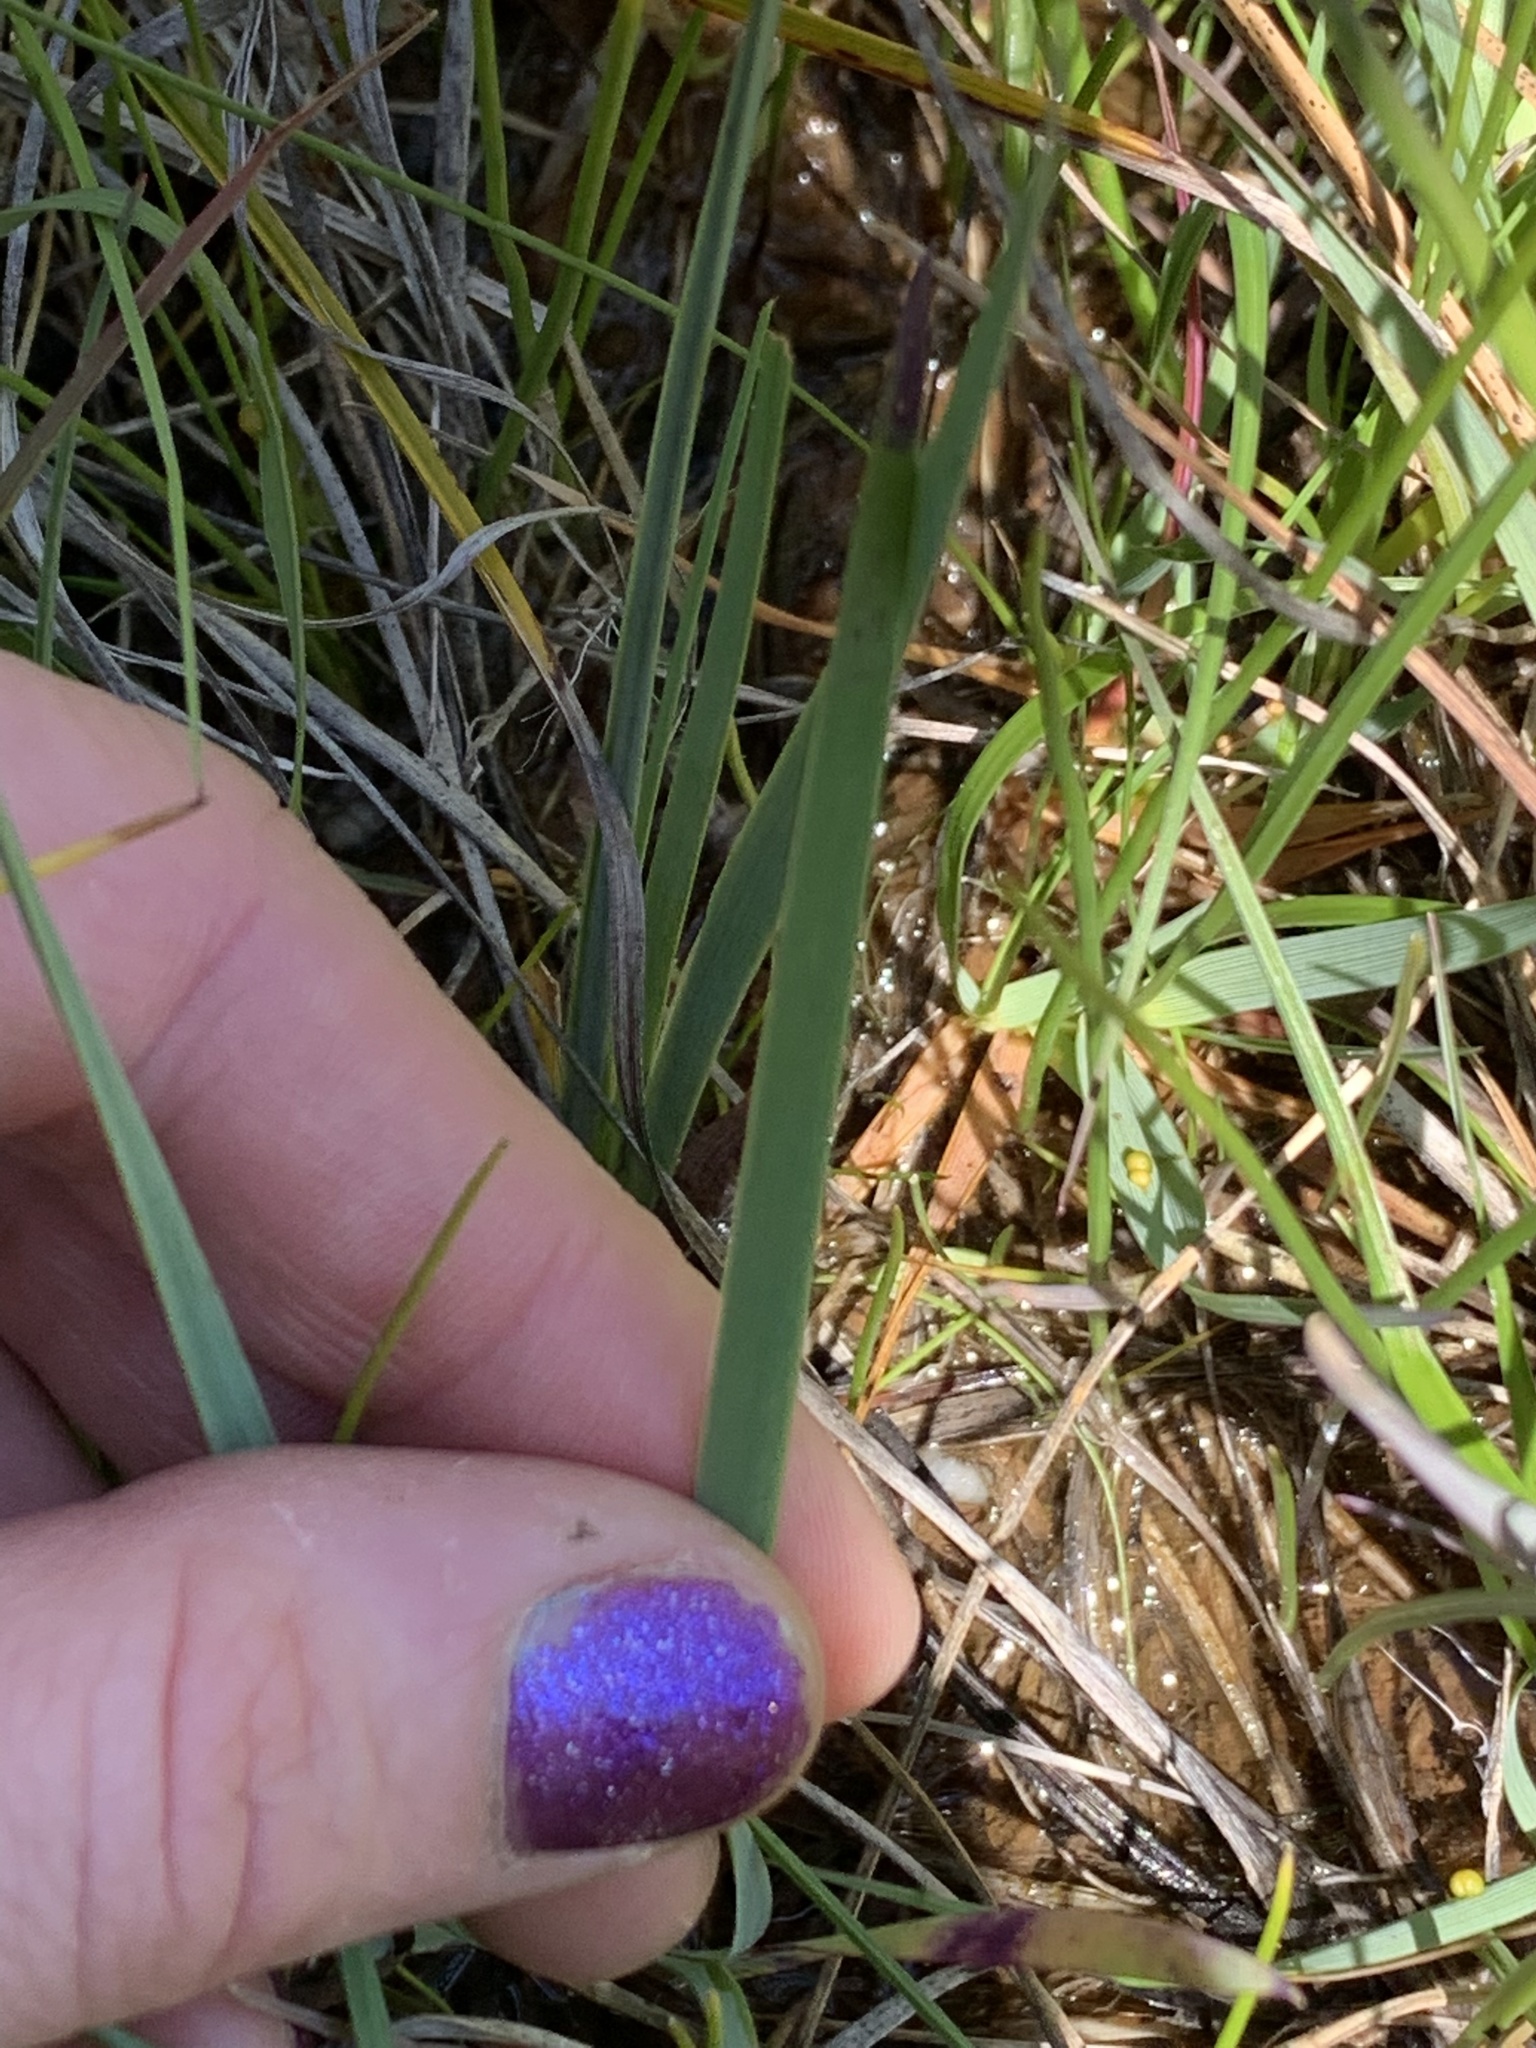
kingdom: Plantae
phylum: Tracheophyta
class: Liliopsida
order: Asparagales
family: Iridaceae
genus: Sisyrinchium
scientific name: Sisyrinchium bellum
